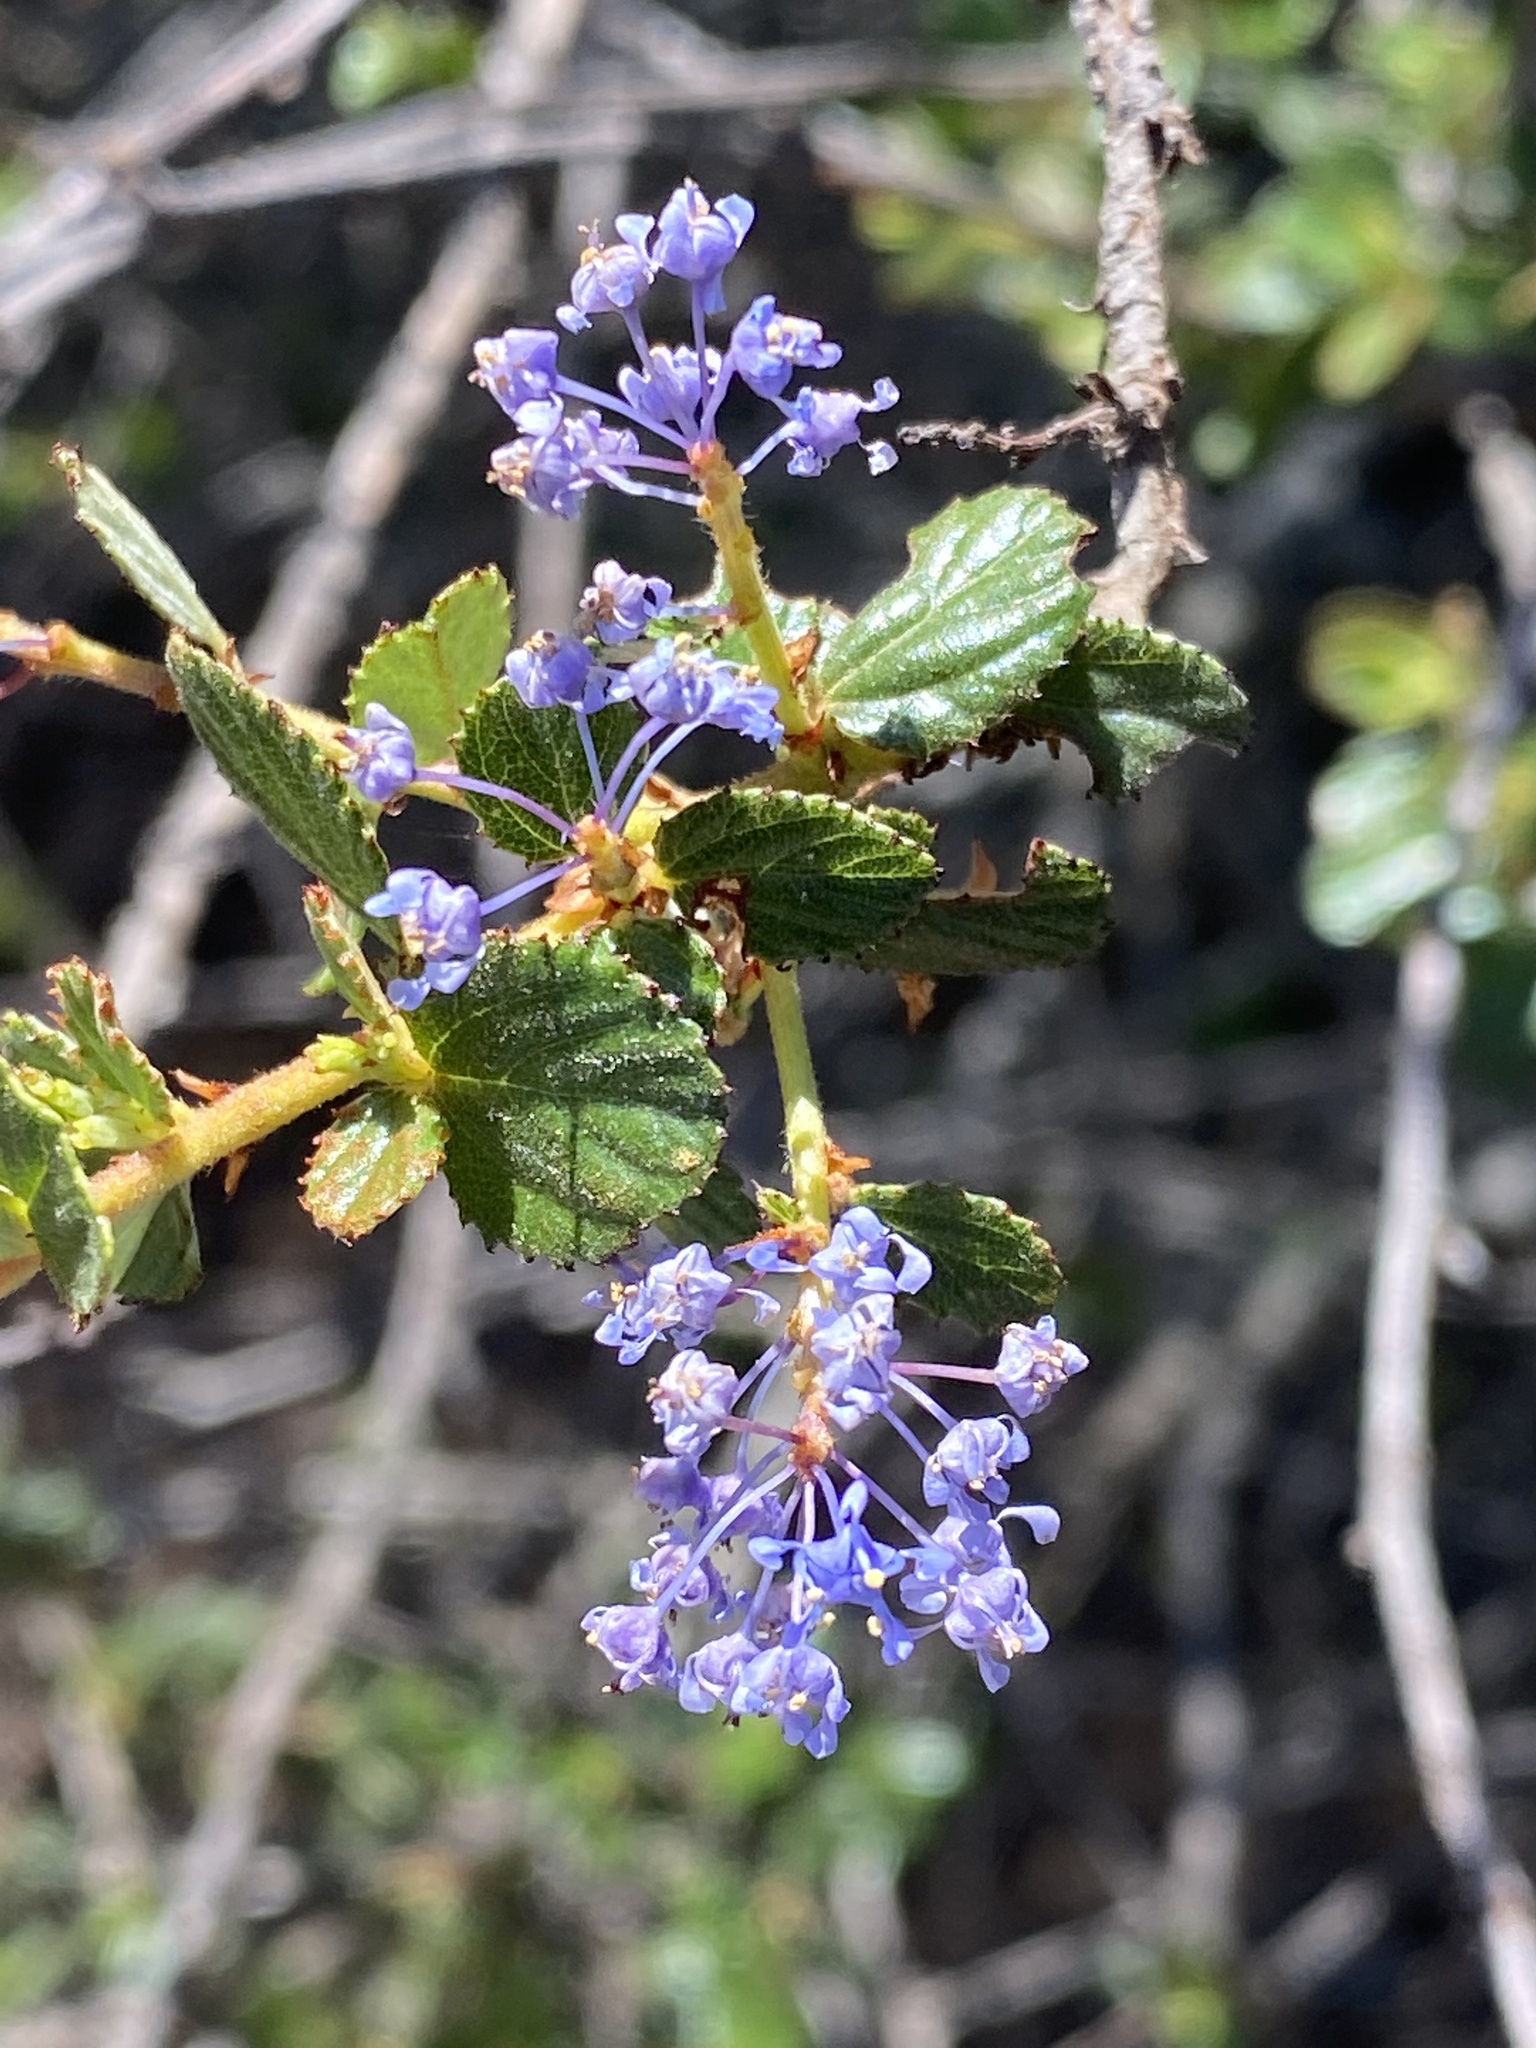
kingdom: Plantae
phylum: Tracheophyta
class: Magnoliopsida
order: Rosales
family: Rhamnaceae
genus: Ceanothus
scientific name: Ceanothus tomentosus
